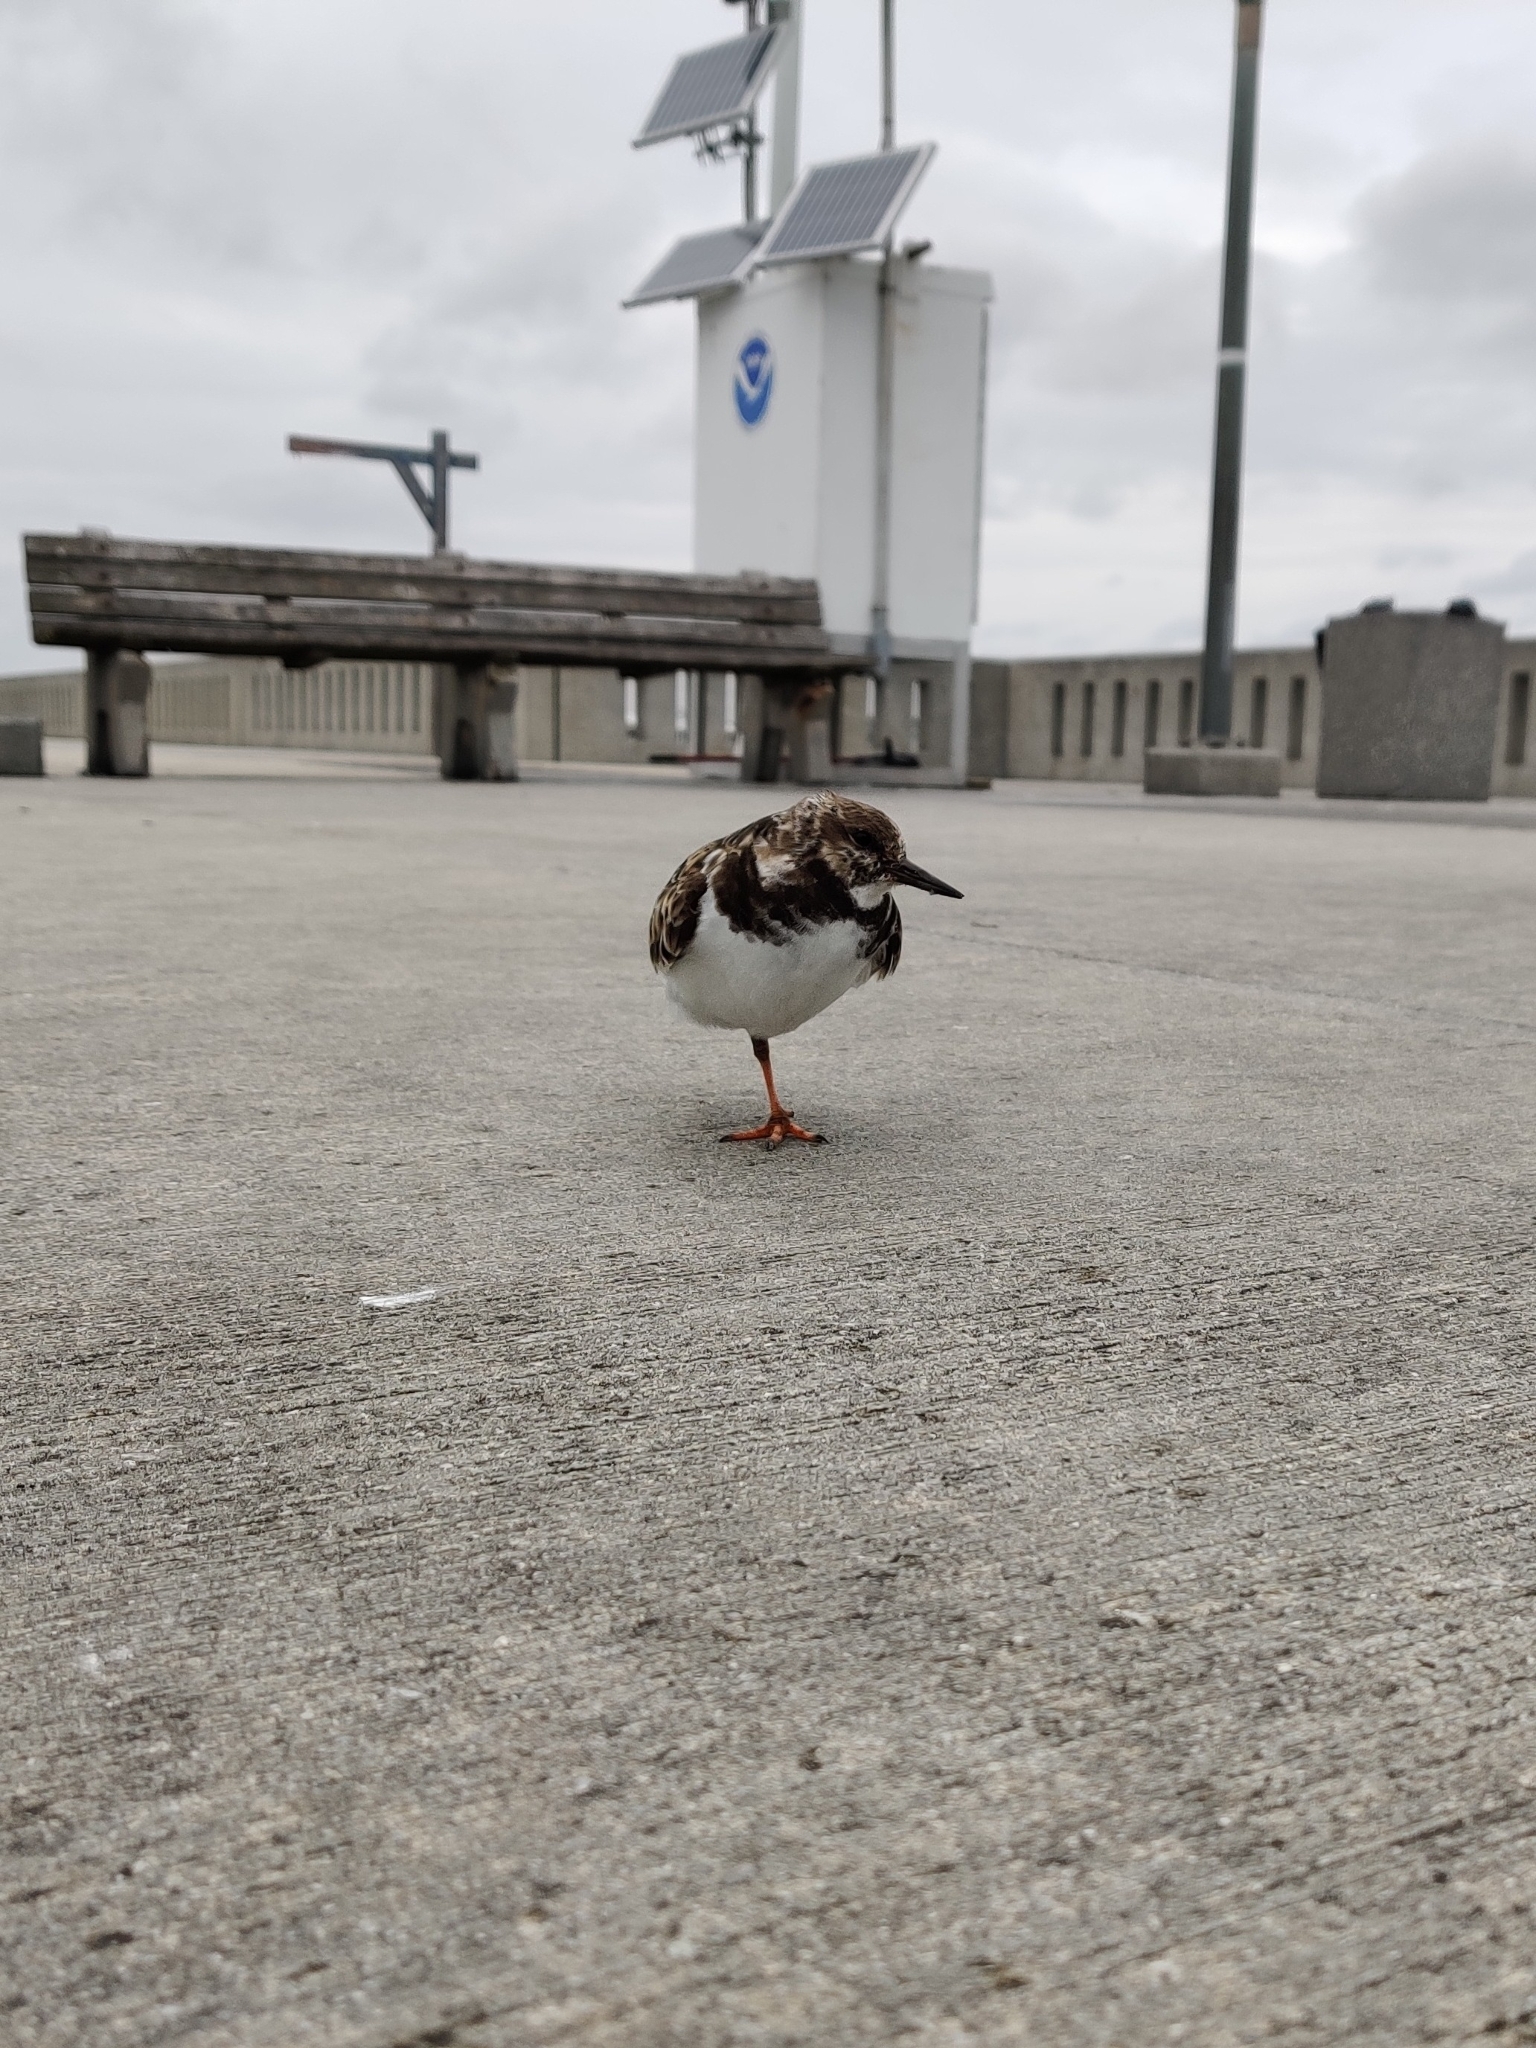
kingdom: Animalia
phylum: Chordata
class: Aves
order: Charadriiformes
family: Scolopacidae
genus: Arenaria
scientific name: Arenaria interpres
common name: Ruddy turnstone
